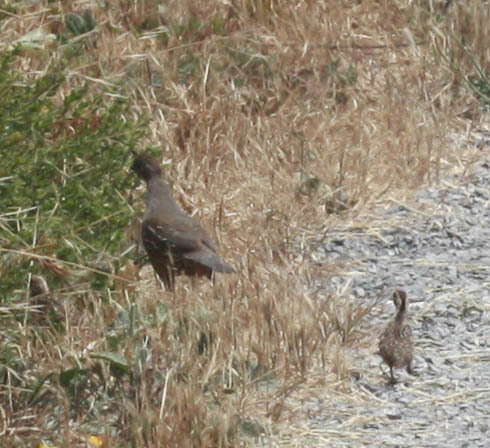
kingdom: Animalia
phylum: Chordata
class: Aves
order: Galliformes
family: Odontophoridae
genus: Callipepla
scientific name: Callipepla californica
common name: California quail
